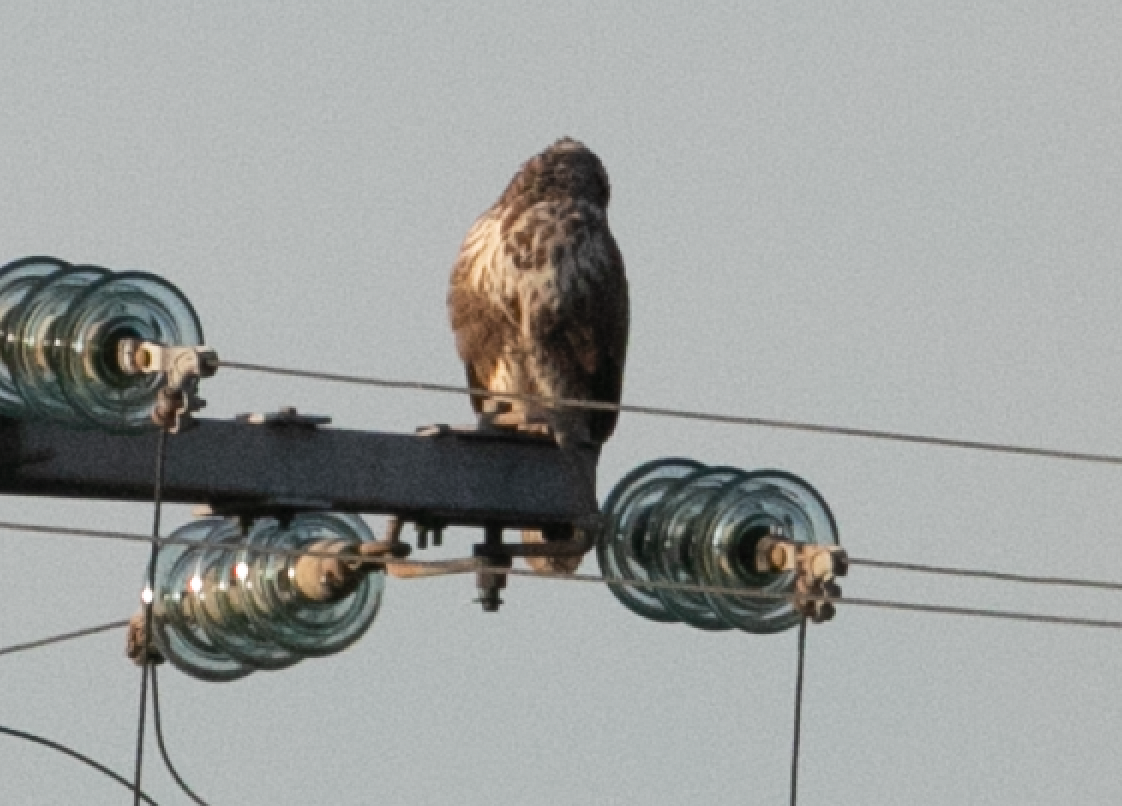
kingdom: Animalia
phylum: Chordata
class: Aves
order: Accipitriformes
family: Accipitridae
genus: Buteo
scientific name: Buteo buteo
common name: Common buzzard
